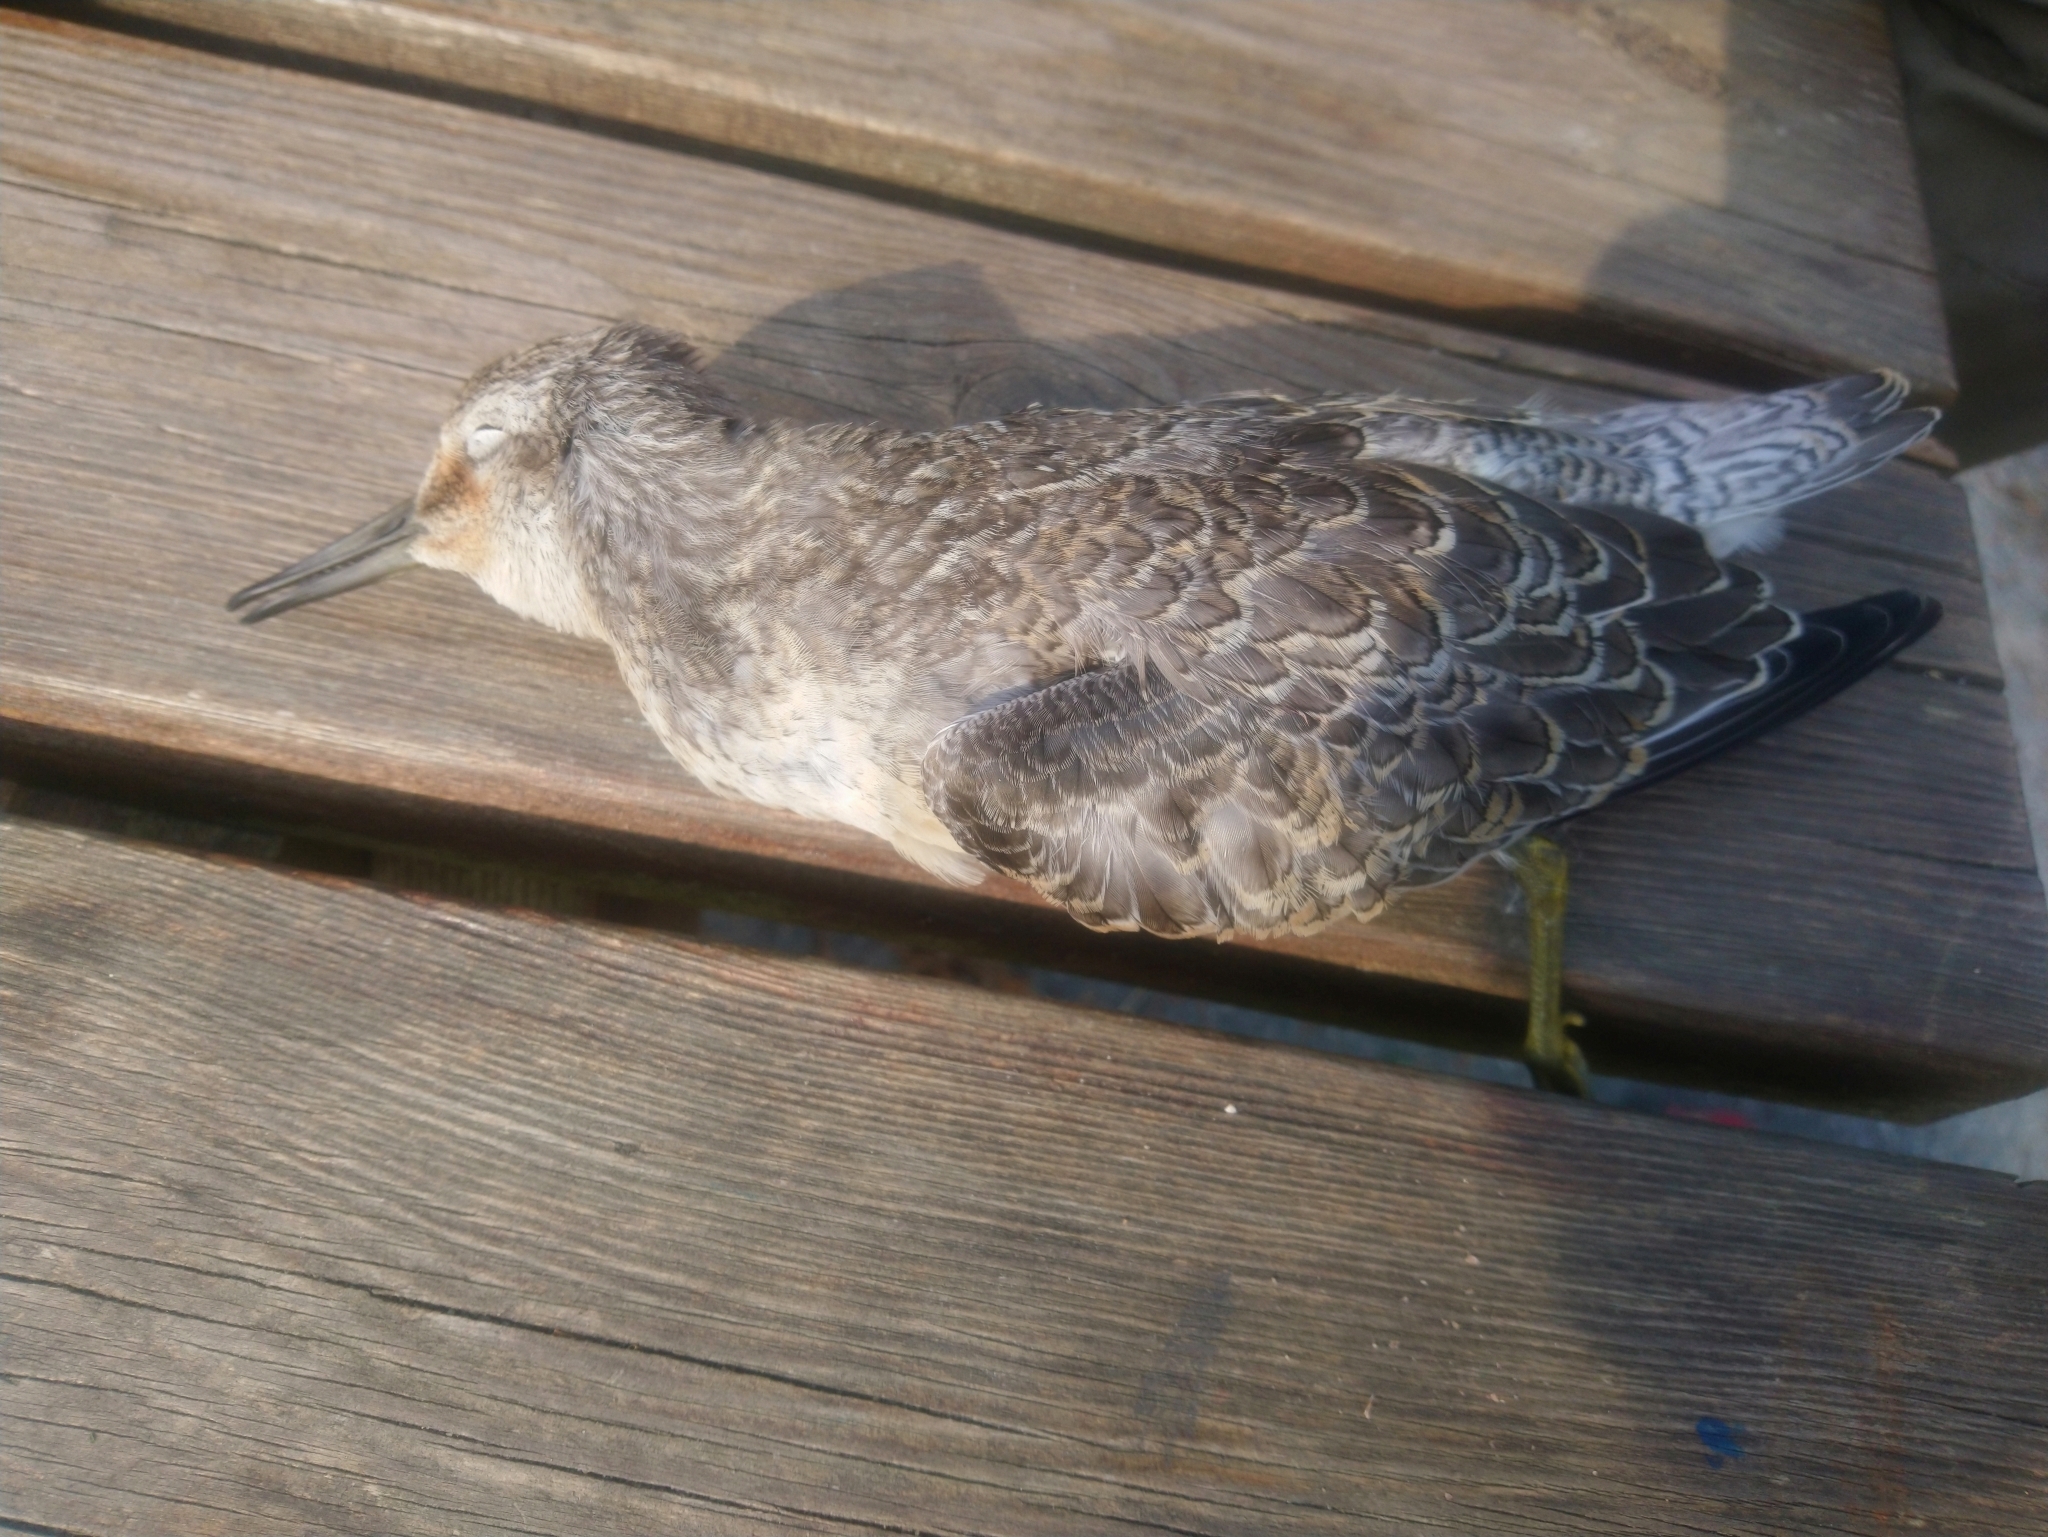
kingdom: Animalia
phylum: Chordata
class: Aves
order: Charadriiformes
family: Scolopacidae
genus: Calidris
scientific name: Calidris canutus
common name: Red knot
